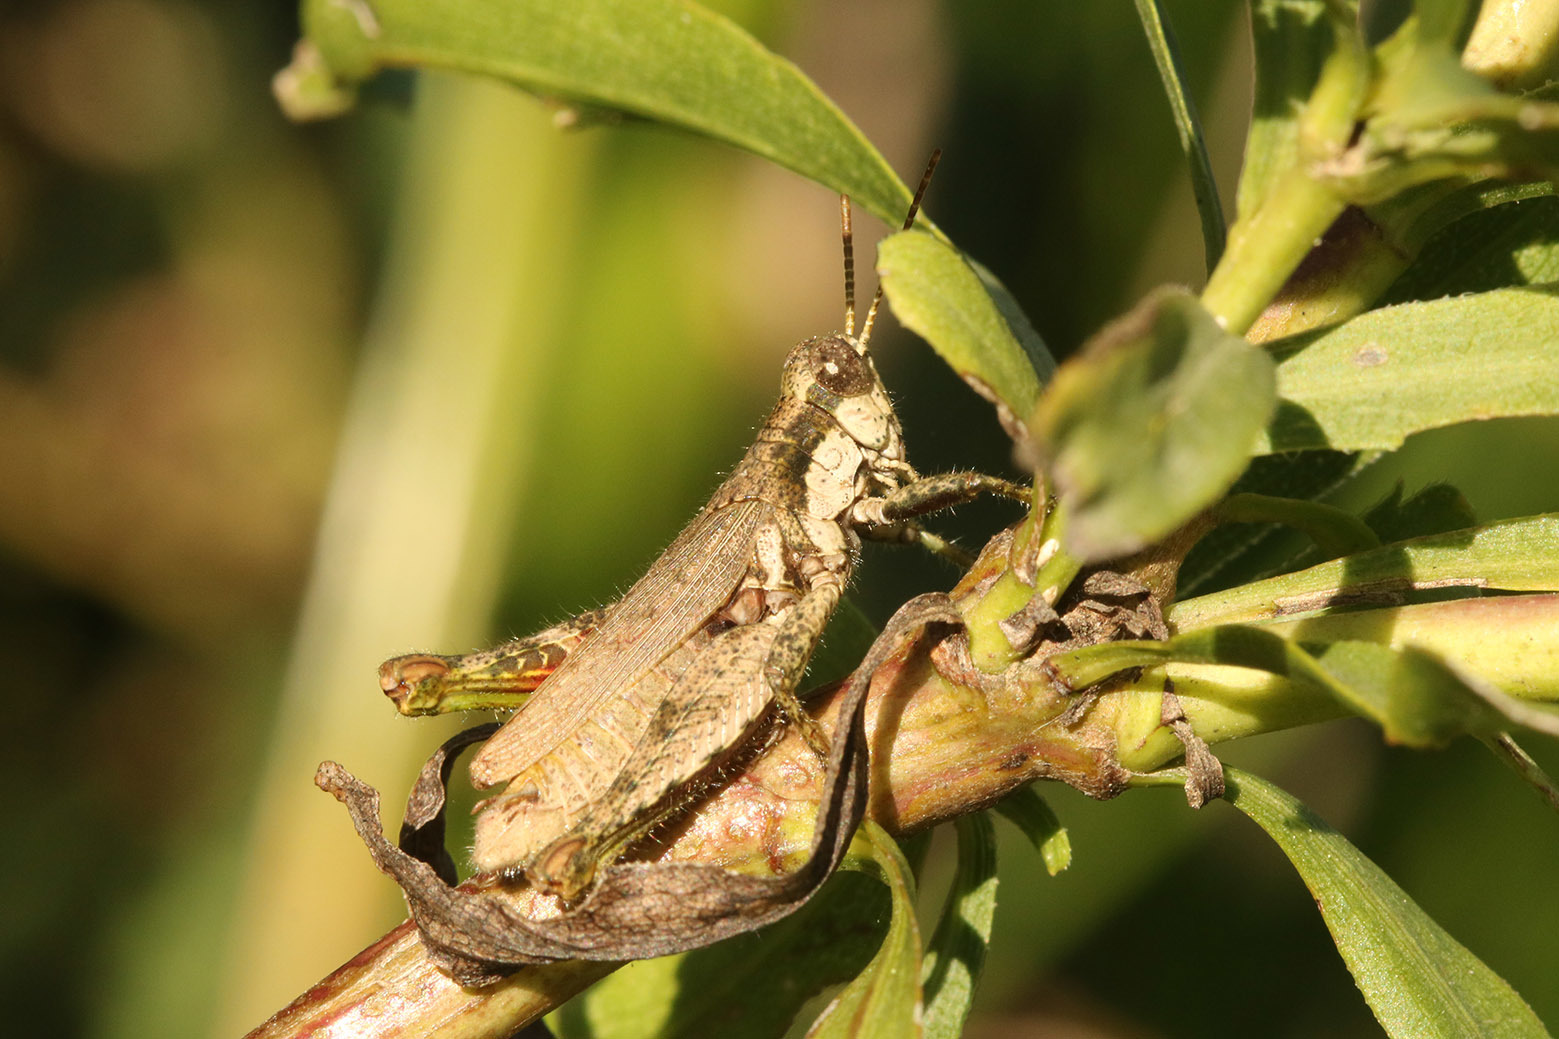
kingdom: Animalia
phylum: Arthropoda
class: Insecta
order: Orthoptera
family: Acrididae
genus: Ronderosia
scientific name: Ronderosia bergii
